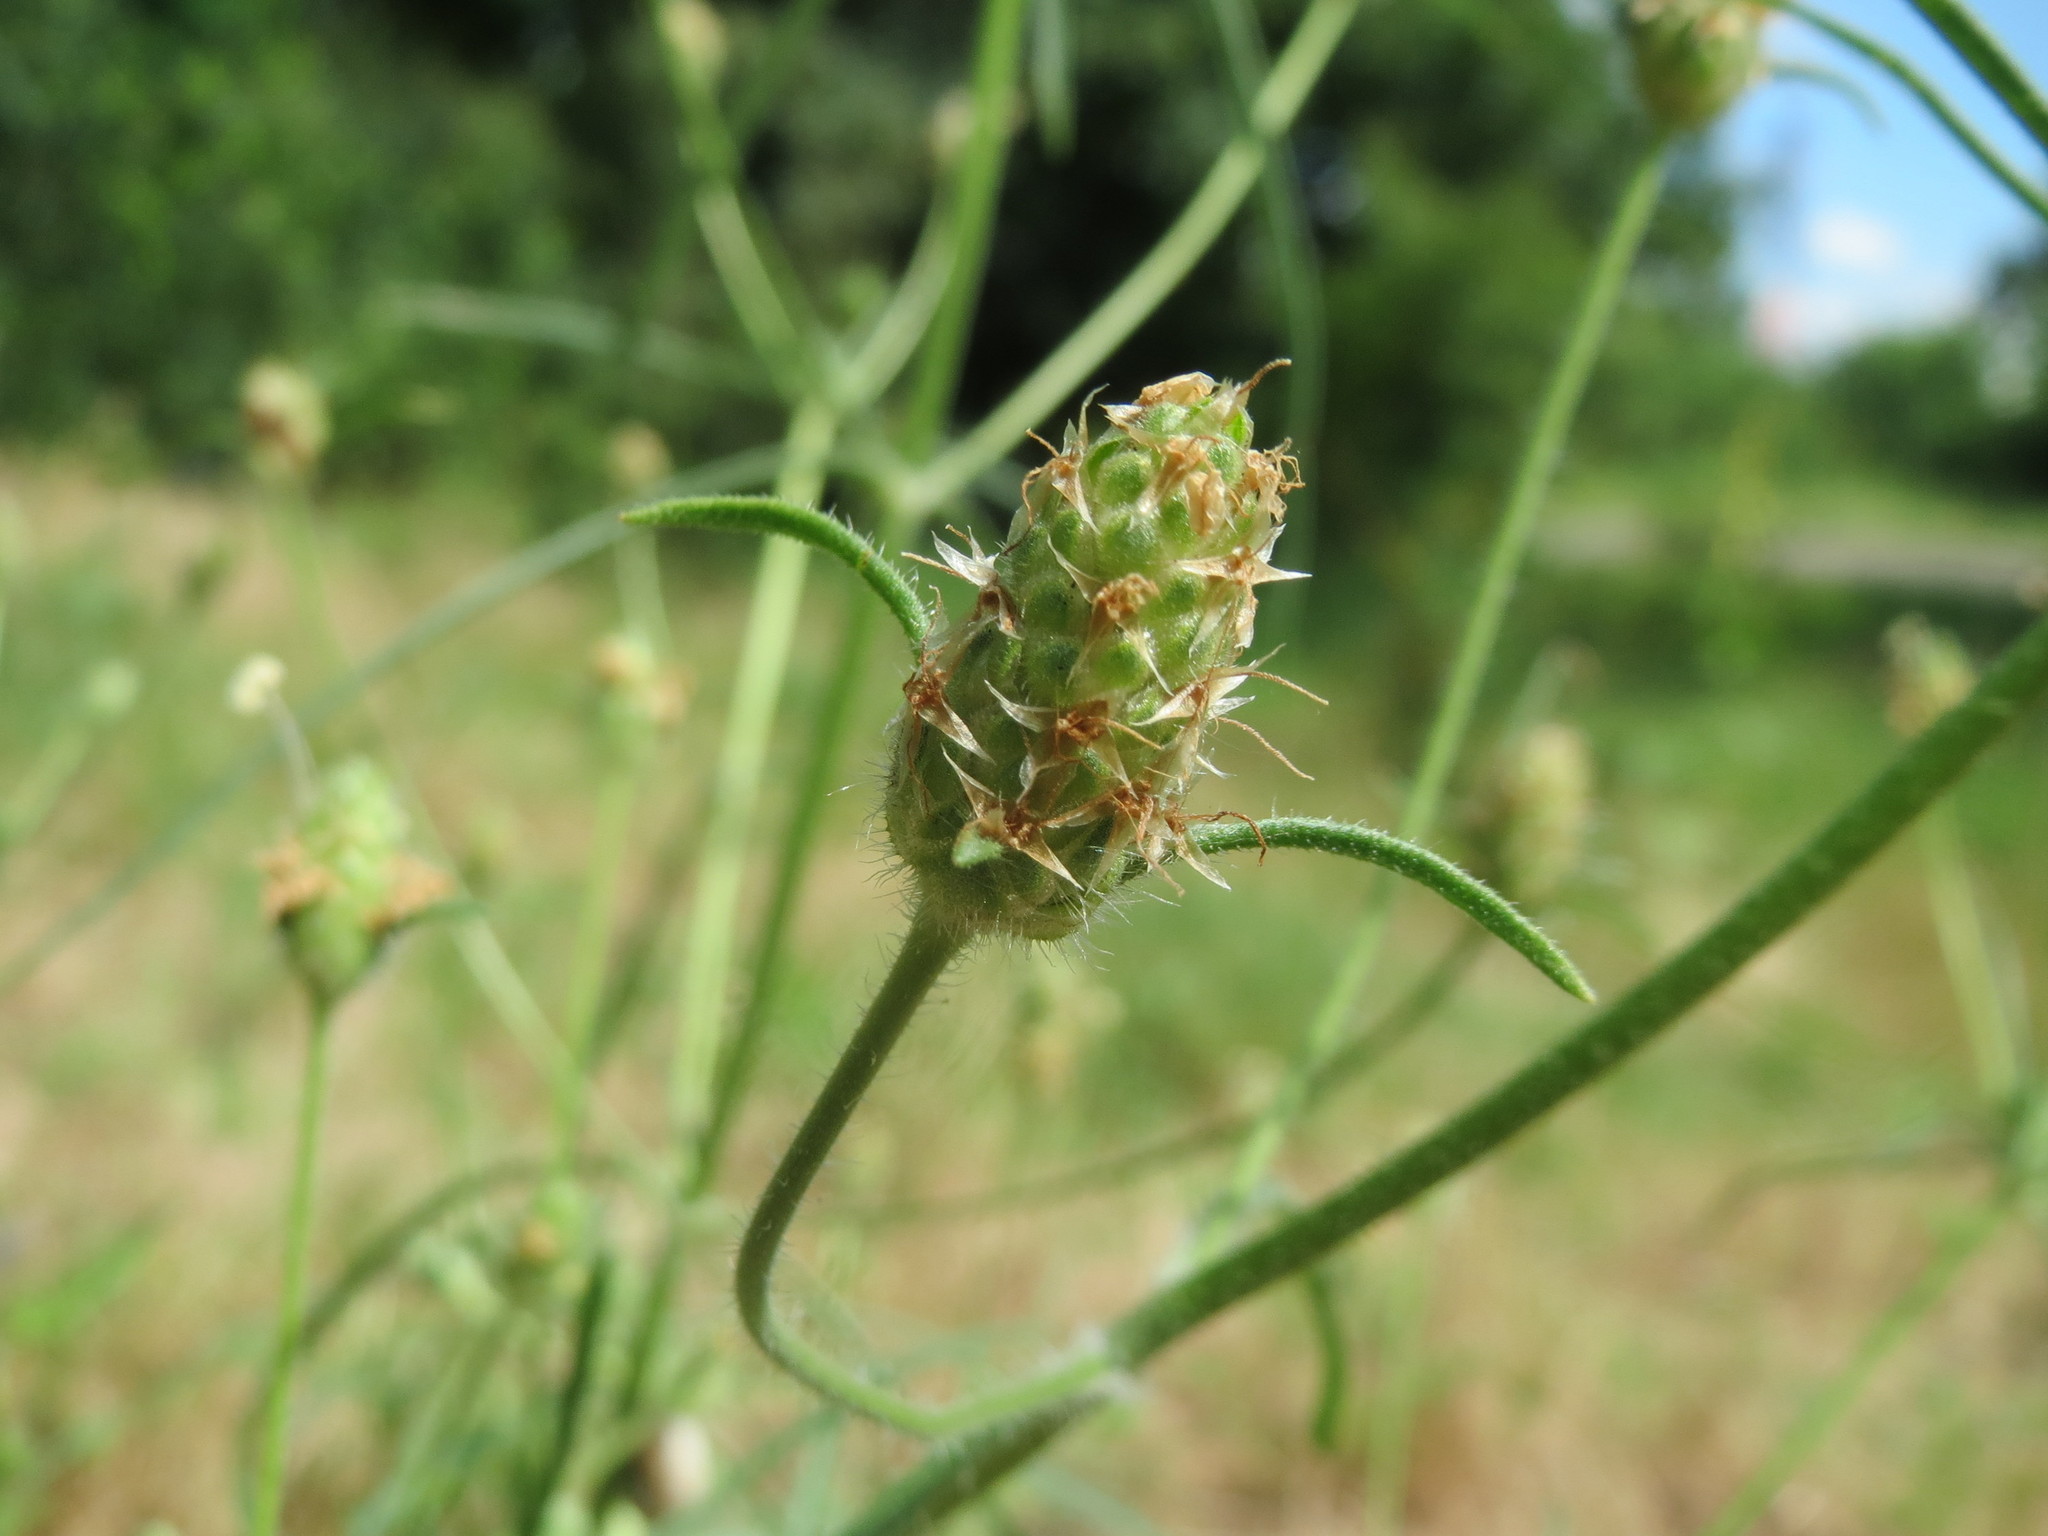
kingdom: Plantae
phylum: Tracheophyta
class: Magnoliopsida
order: Lamiales
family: Plantaginaceae
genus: Plantago
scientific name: Plantago arenaria
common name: Branched plantain
